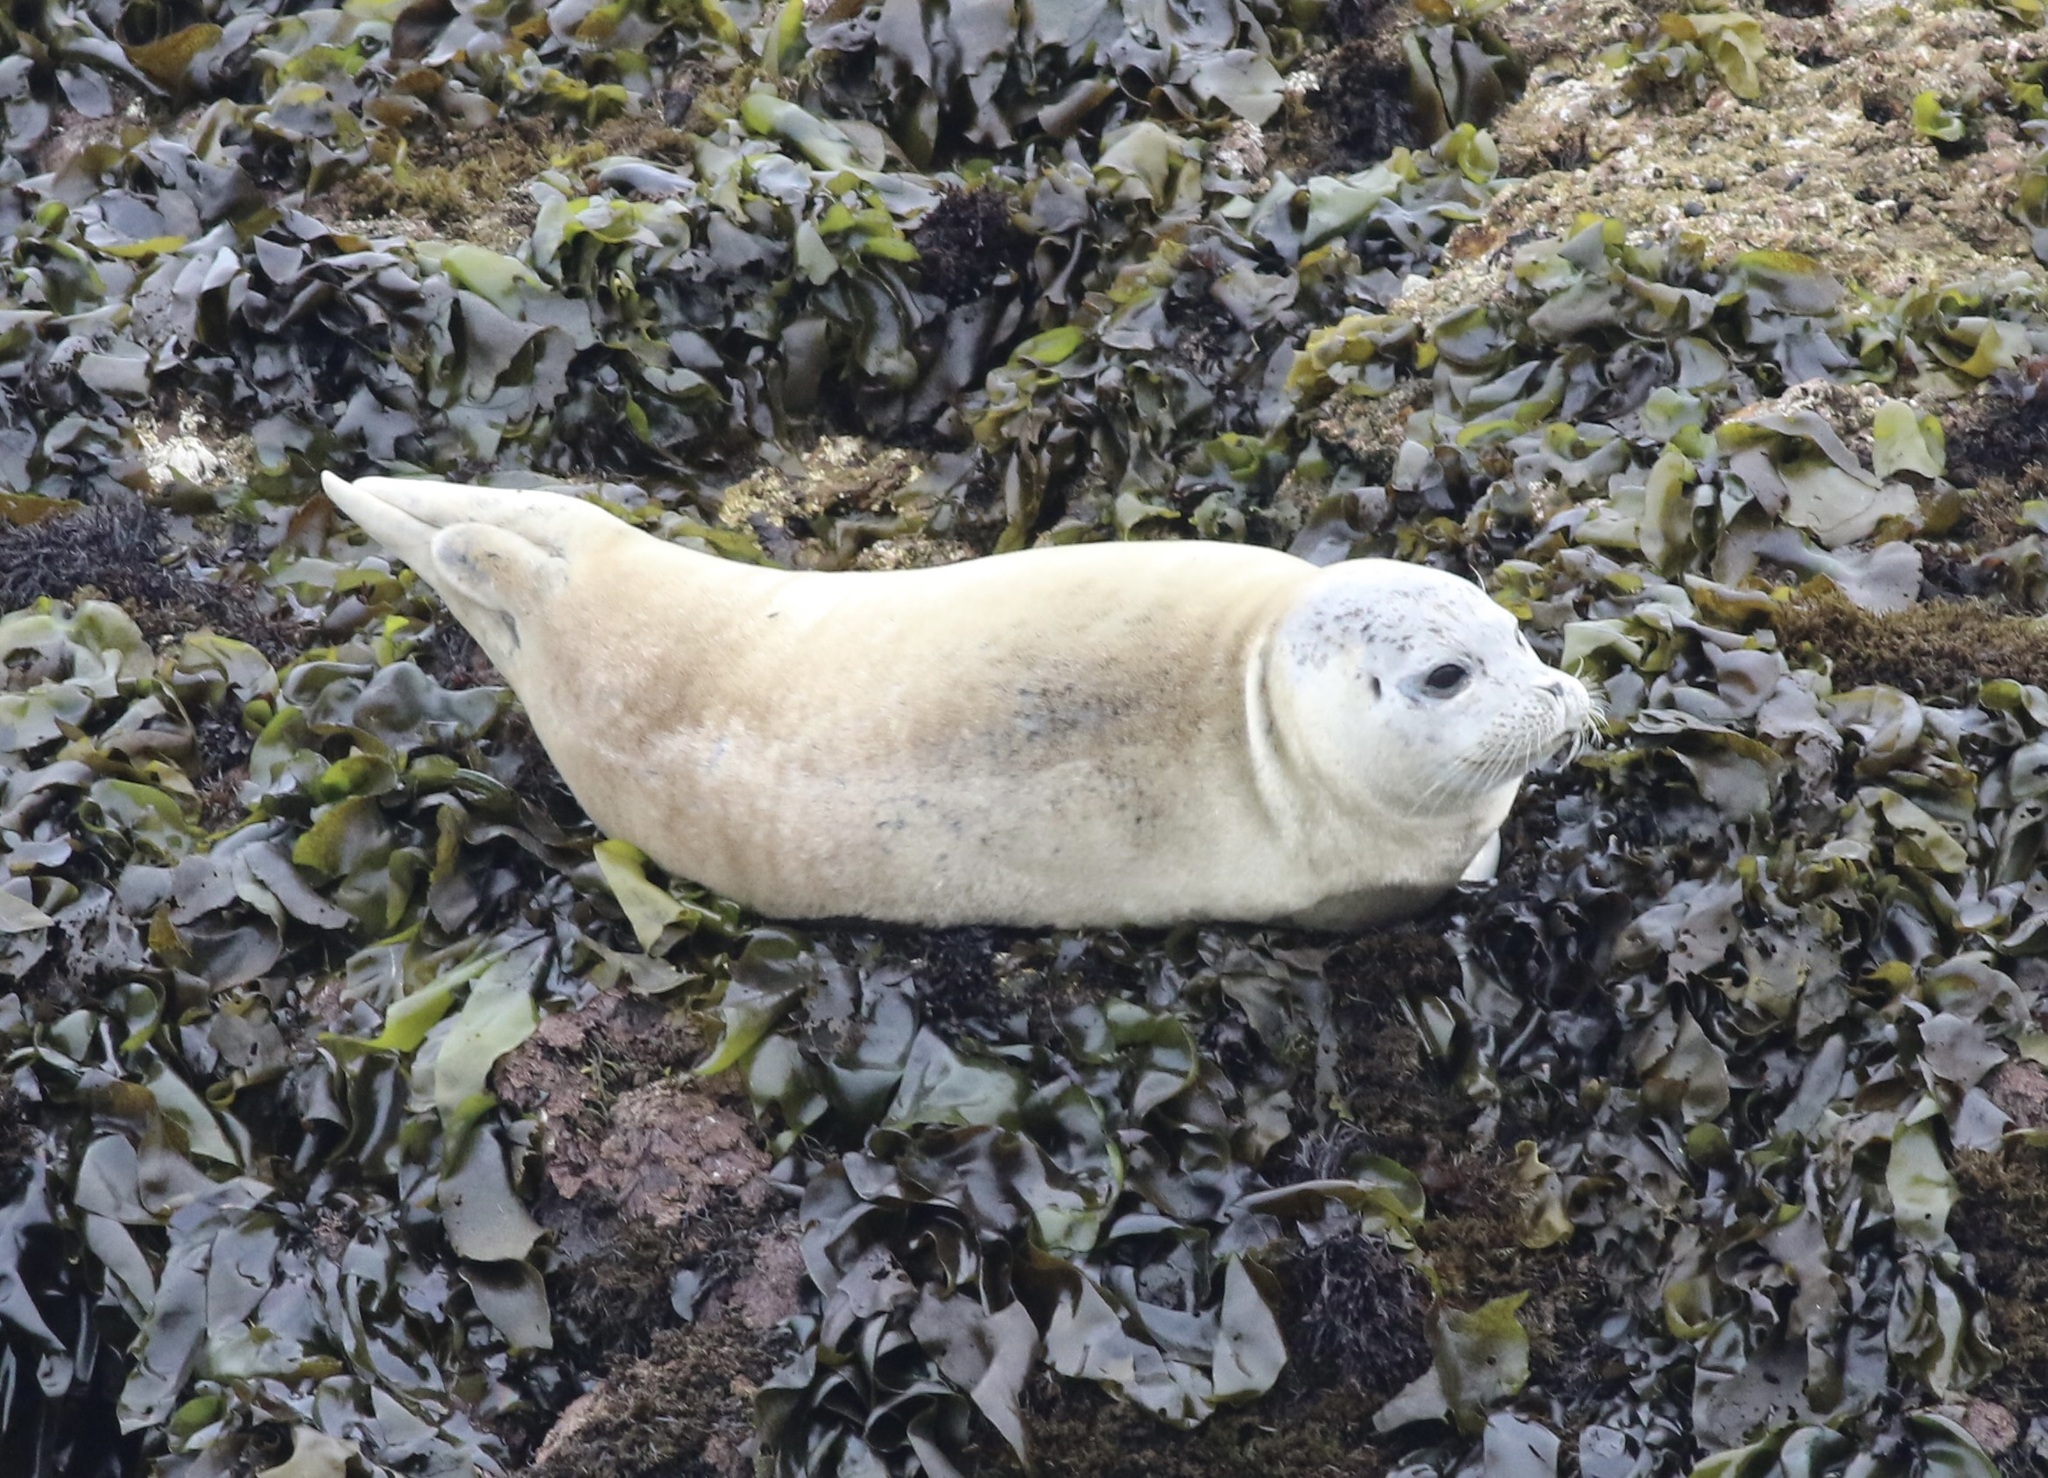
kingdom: Animalia
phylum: Chordata
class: Mammalia
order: Carnivora
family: Phocidae
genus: Phoca
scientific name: Phoca vitulina
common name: Harbor seal
